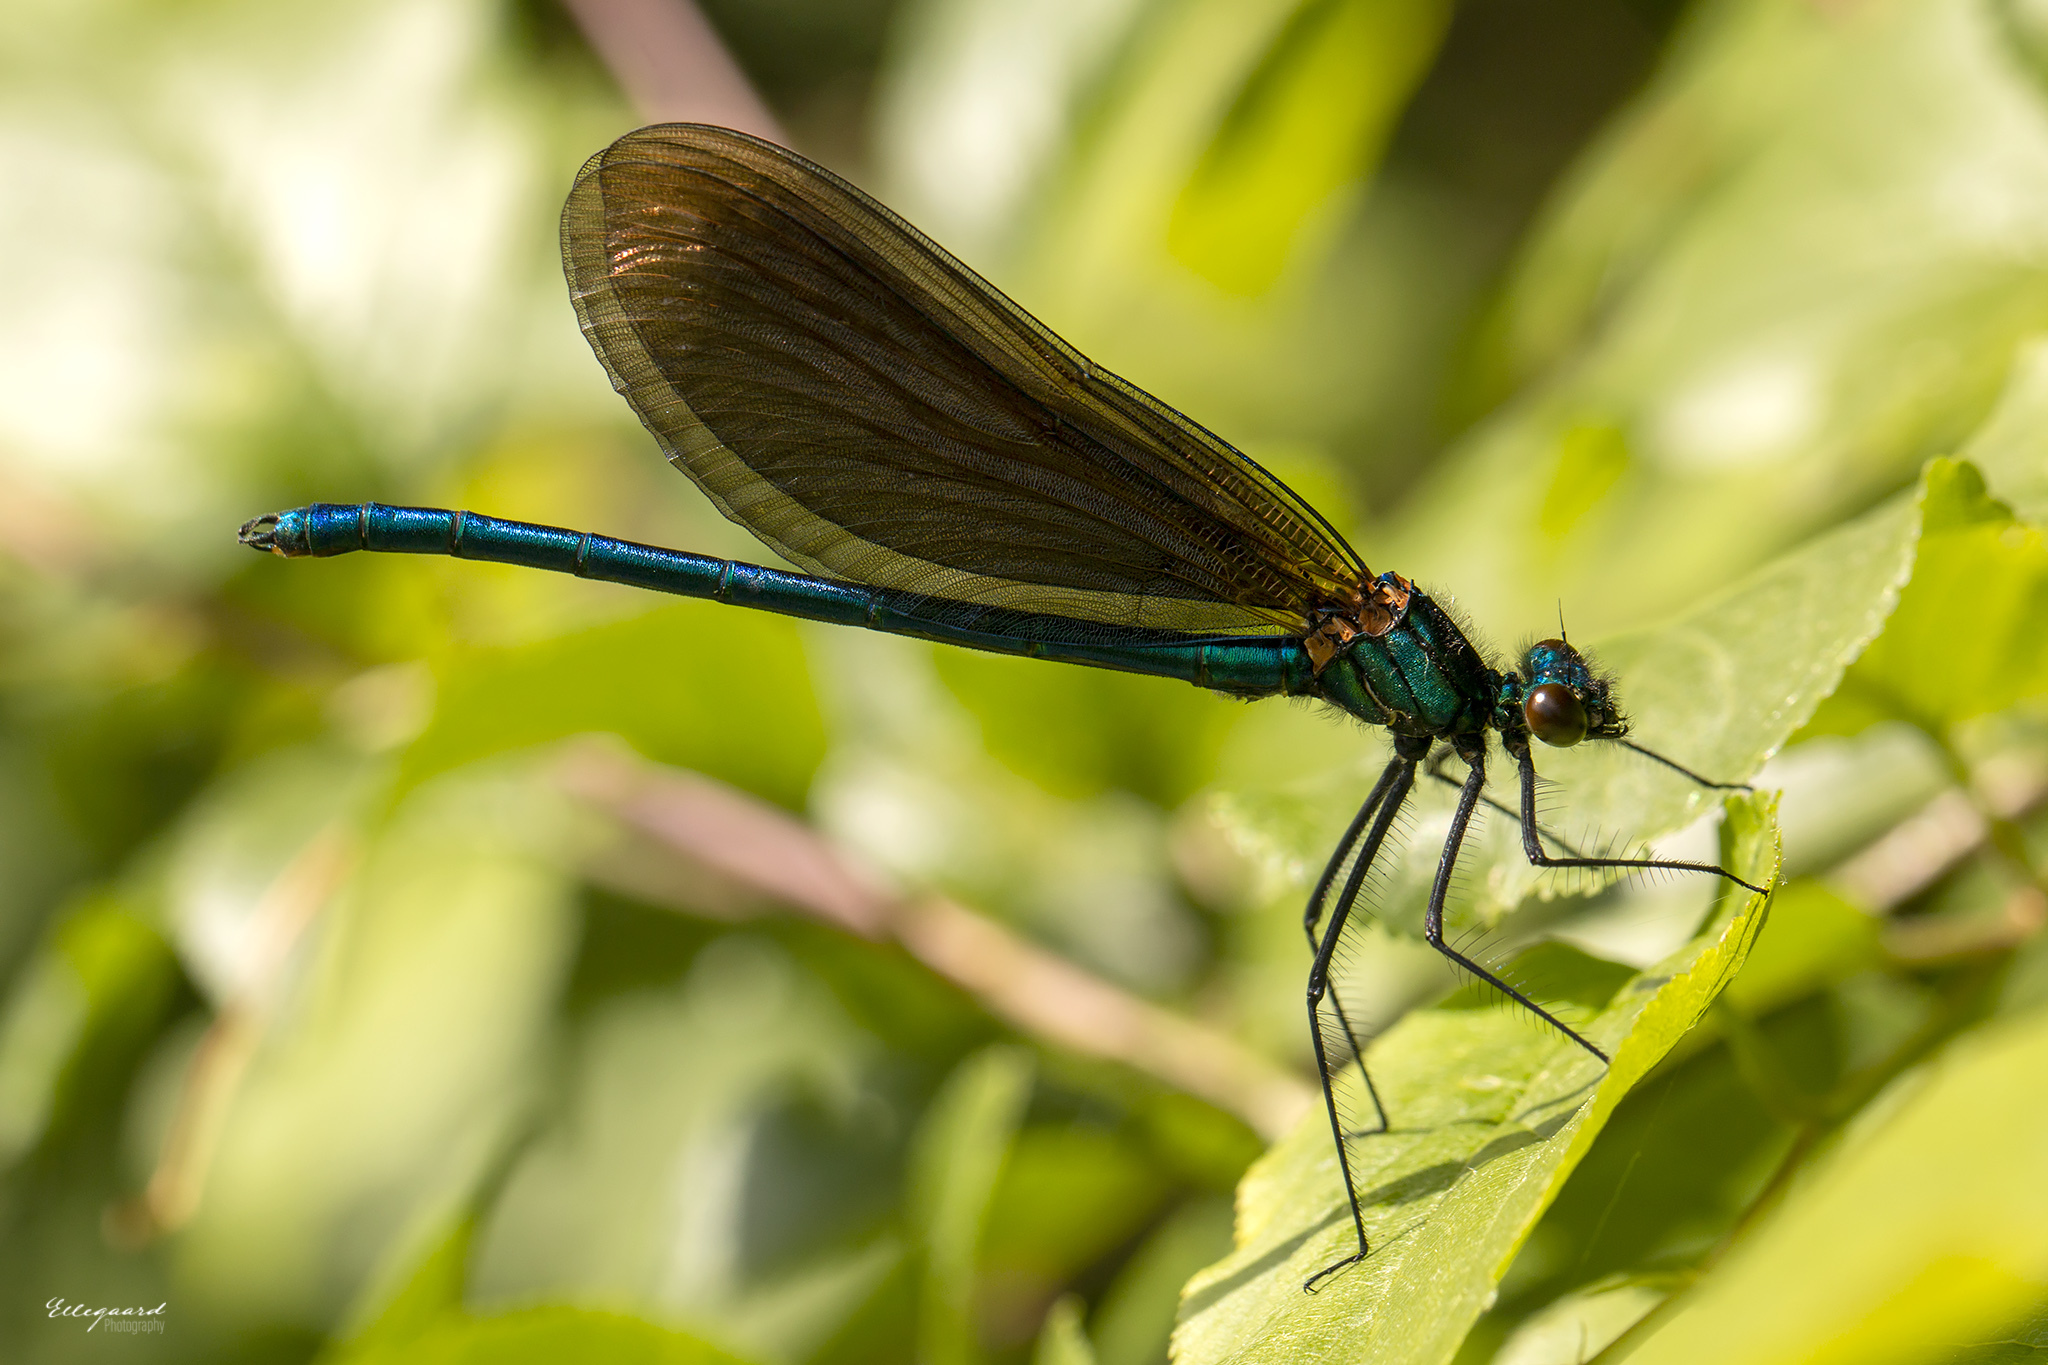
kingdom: Animalia
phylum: Arthropoda
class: Insecta
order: Odonata
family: Calopterygidae
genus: Calopteryx
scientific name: Calopteryx virgo
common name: Beautiful demoiselle
